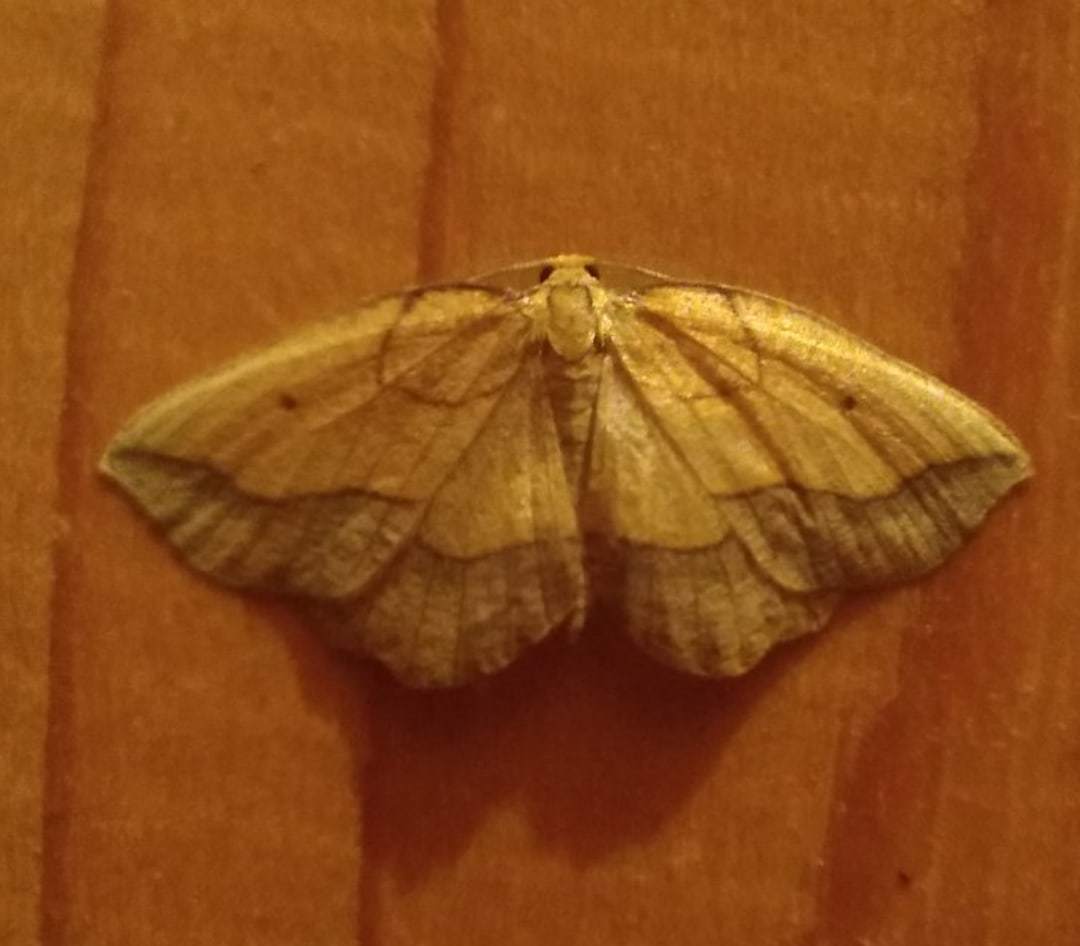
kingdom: Animalia
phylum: Arthropoda
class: Insecta
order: Lepidoptera
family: Geometridae
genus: Epione
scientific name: Epione repandaria
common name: Bordered beauty
